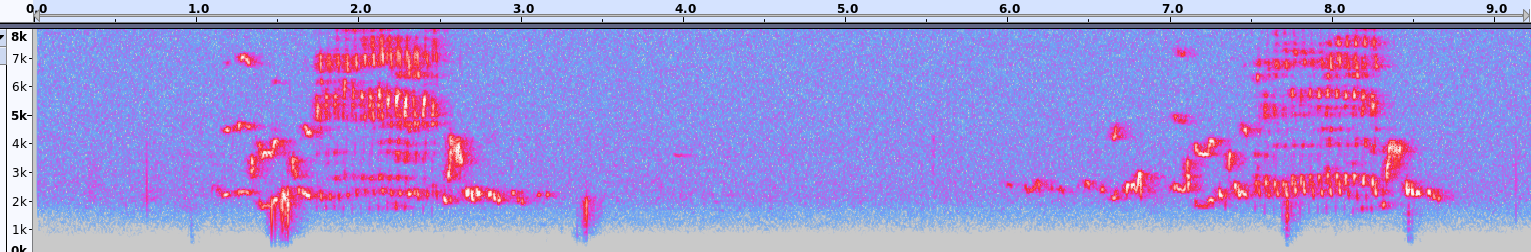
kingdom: Animalia
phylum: Chordata
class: Aves
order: Passeriformes
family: Troglodytidae
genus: Cistothorus
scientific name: Cistothorus palustris
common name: Marsh wren
